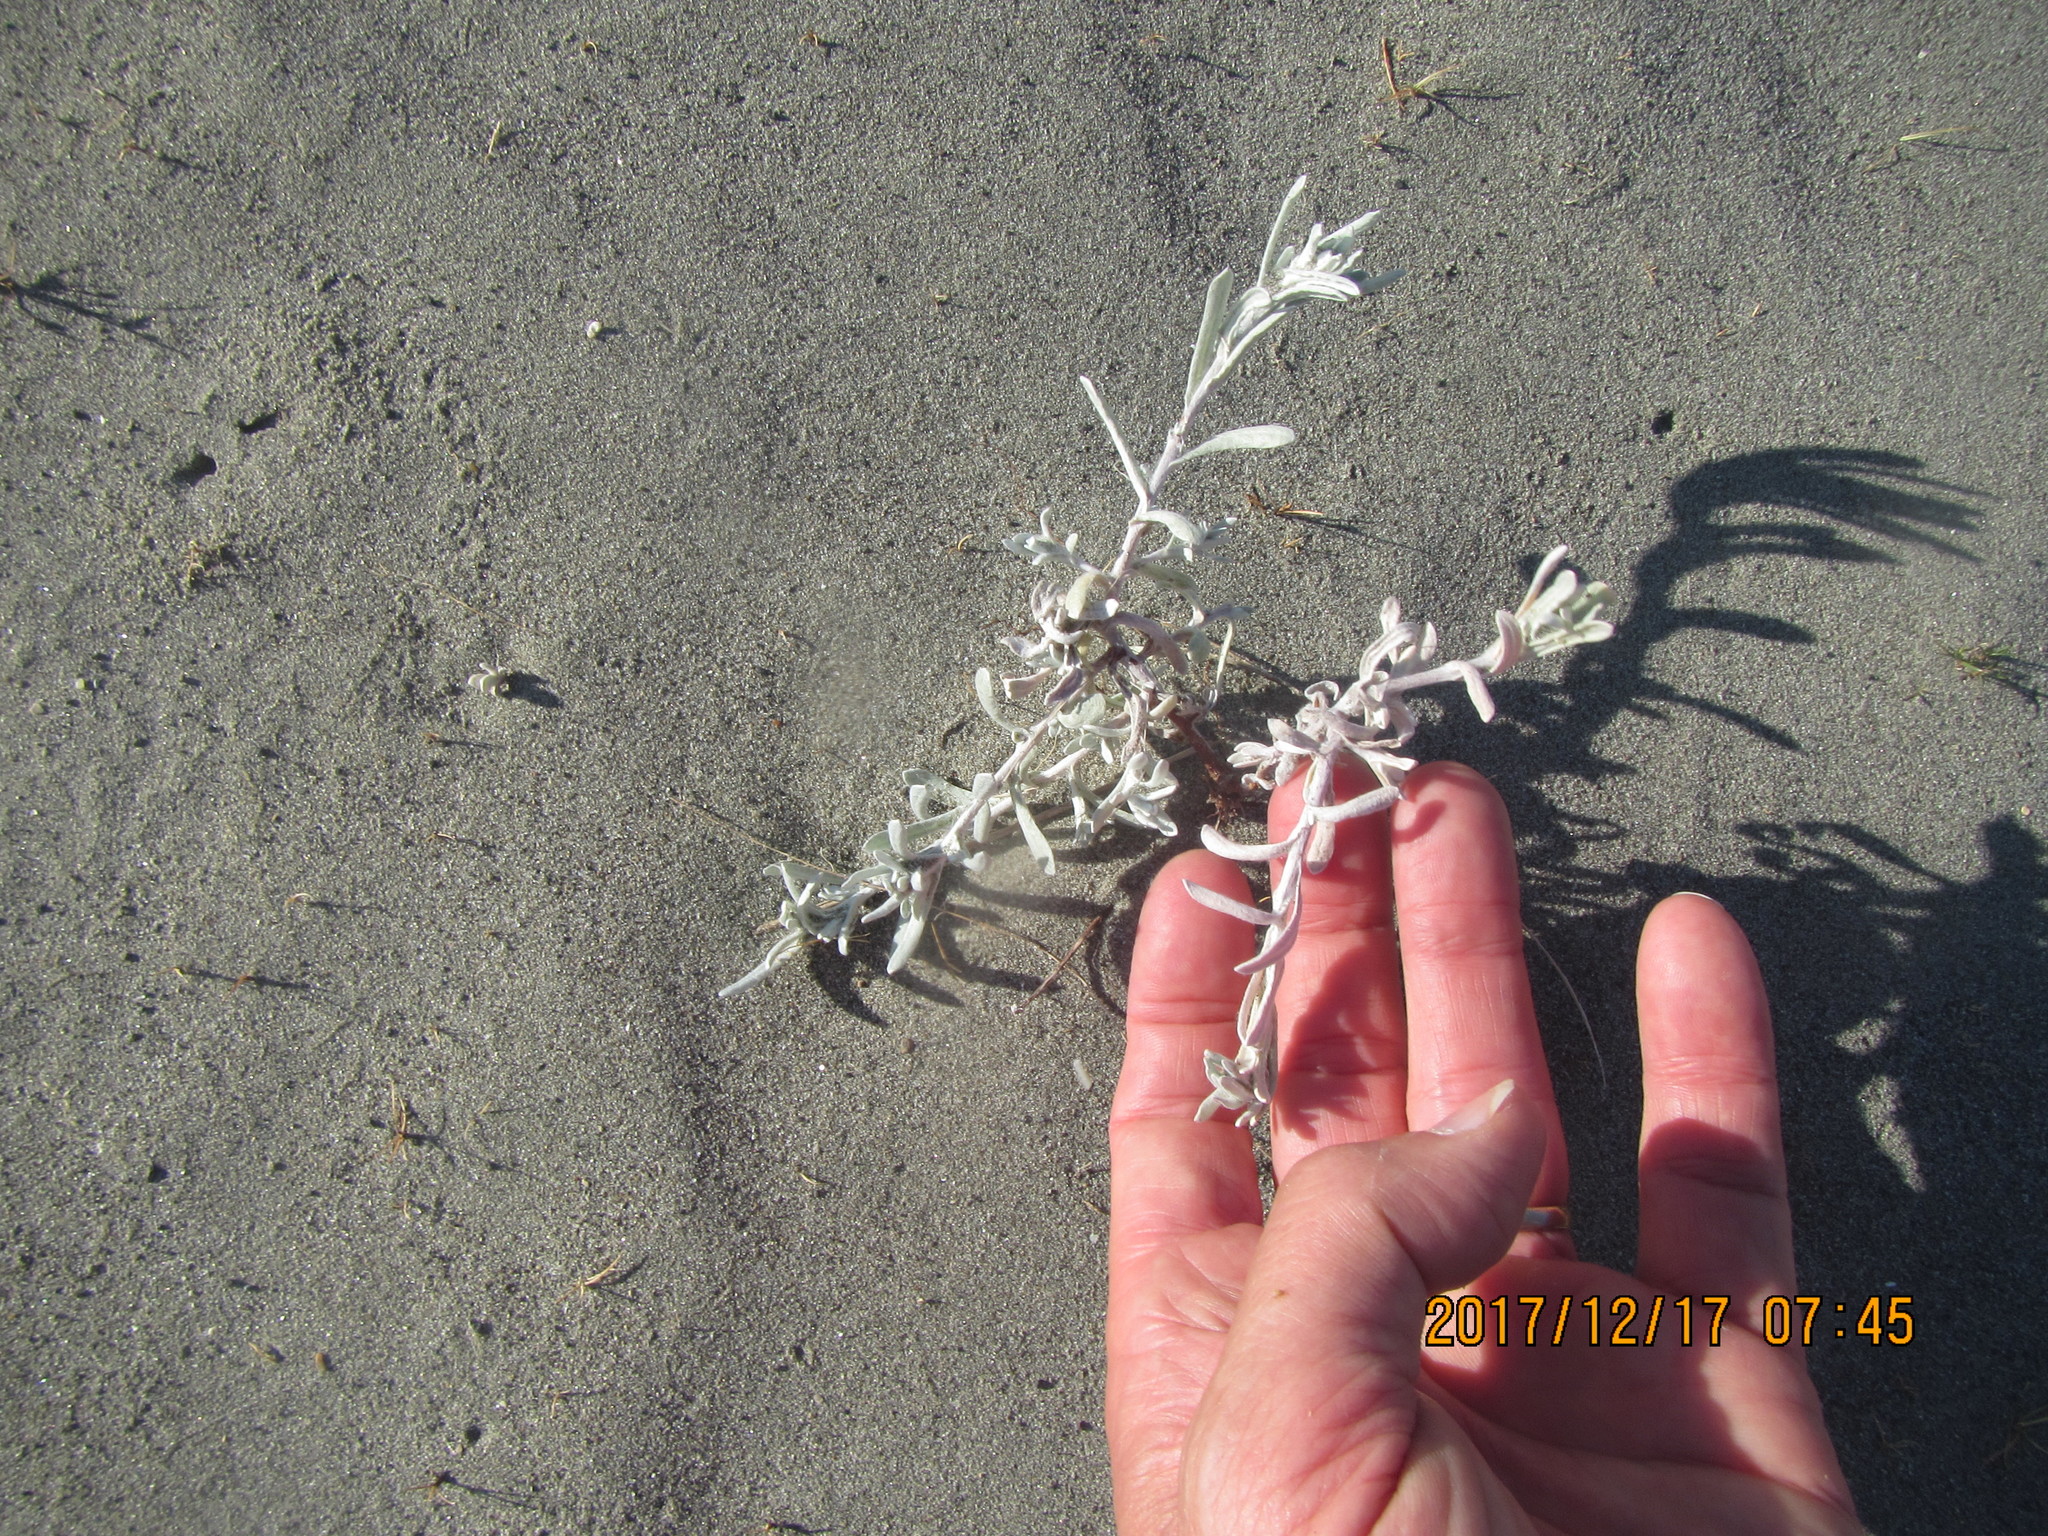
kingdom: Plantae
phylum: Tracheophyta
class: Magnoliopsida
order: Asterales
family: Asteraceae
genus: Helichrysum
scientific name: Helichrysum luteoalbum
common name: Daisy
